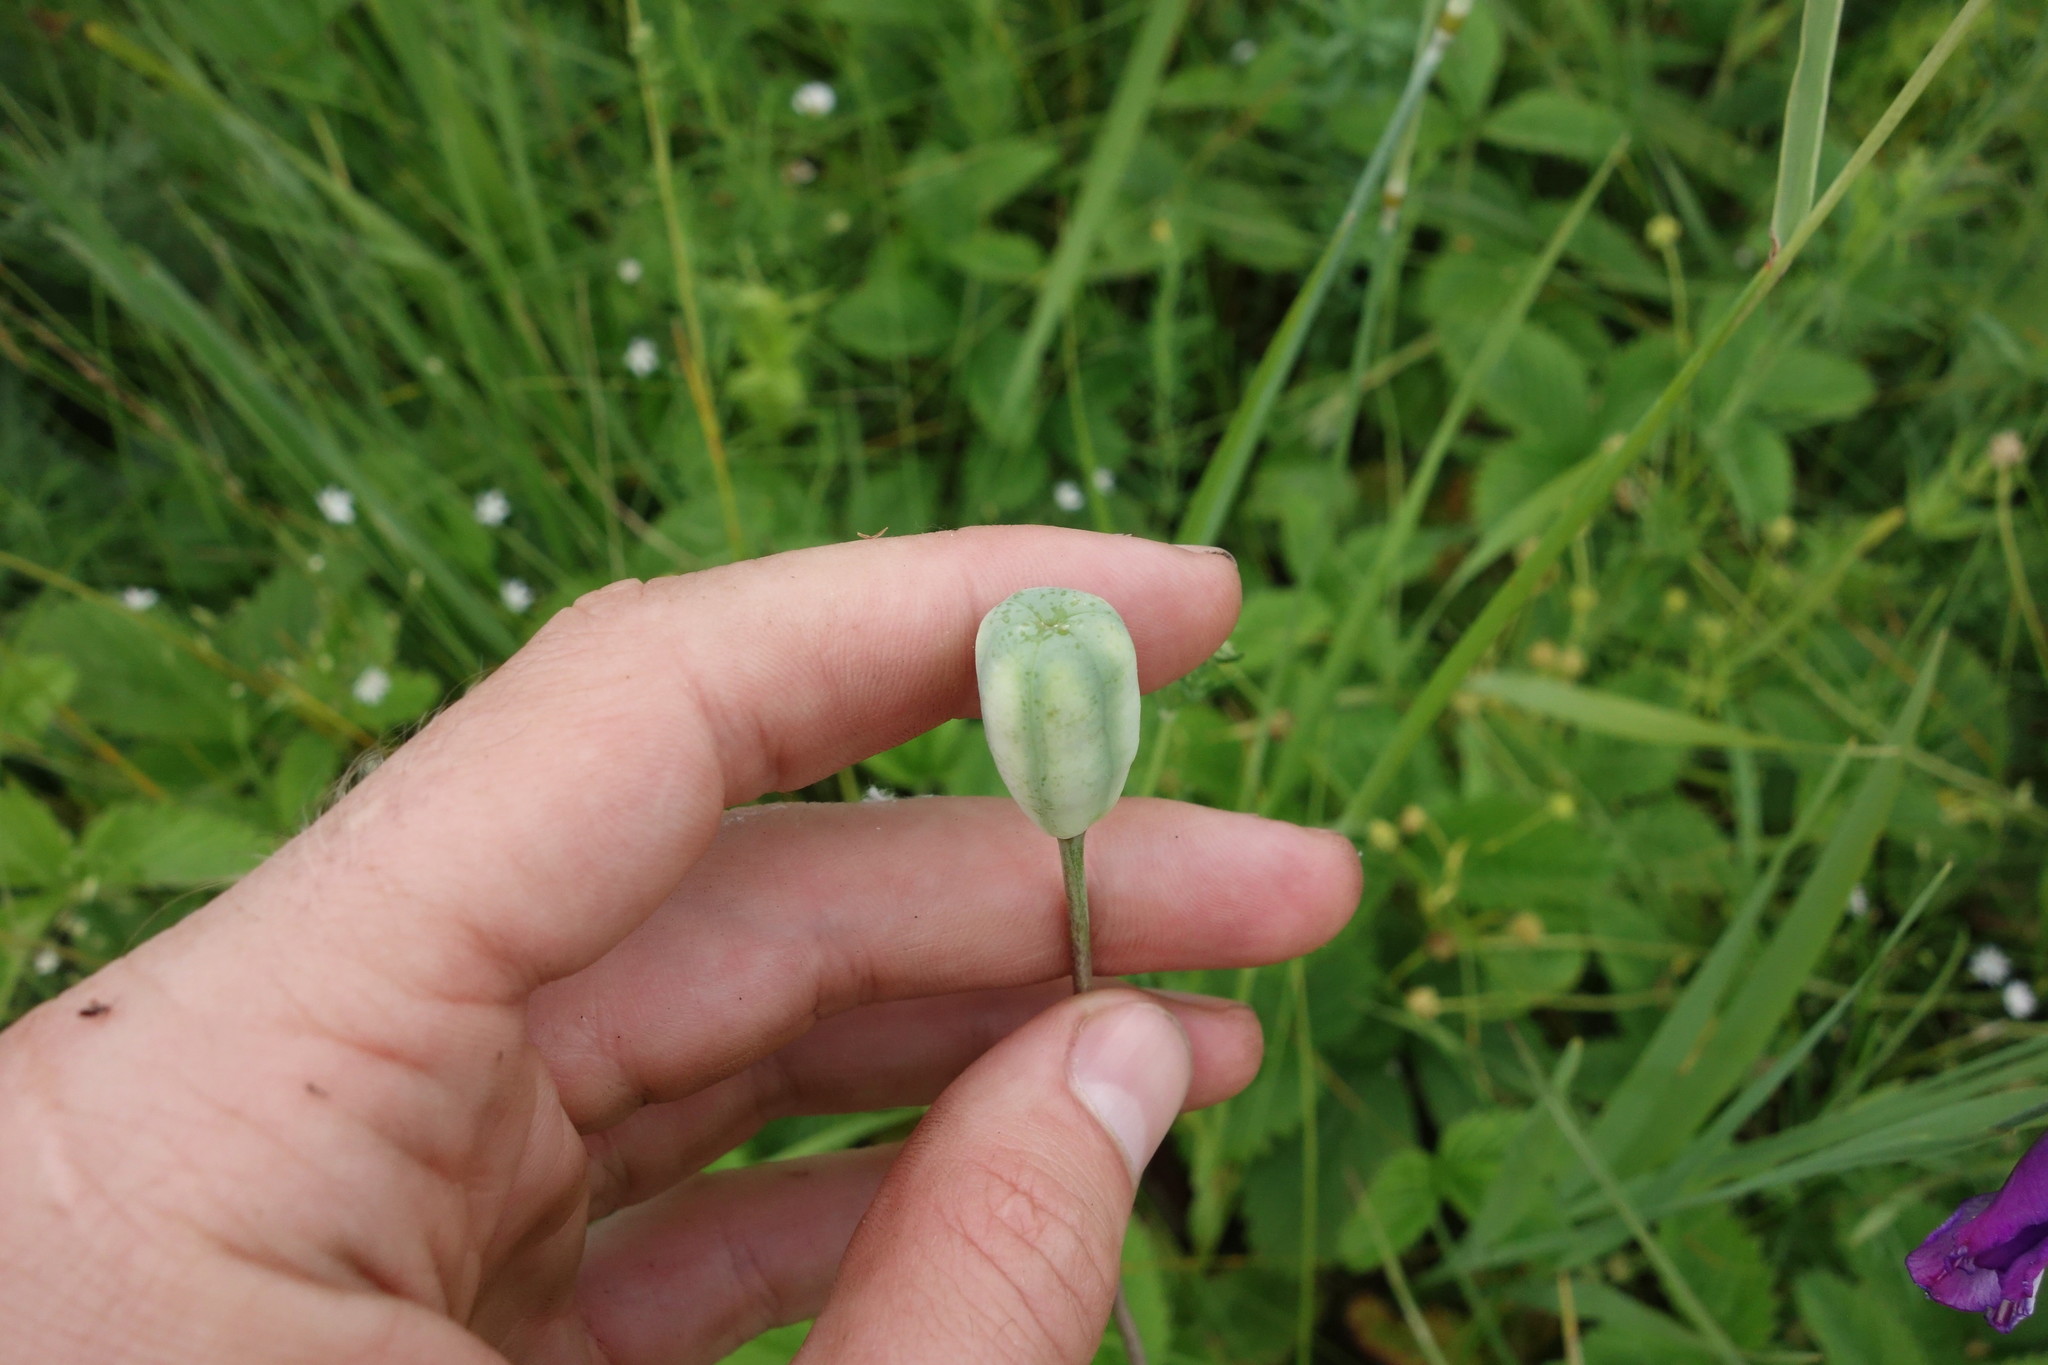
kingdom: Plantae
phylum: Tracheophyta
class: Liliopsida
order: Liliales
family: Liliaceae
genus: Fritillaria
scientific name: Fritillaria meleagroides
